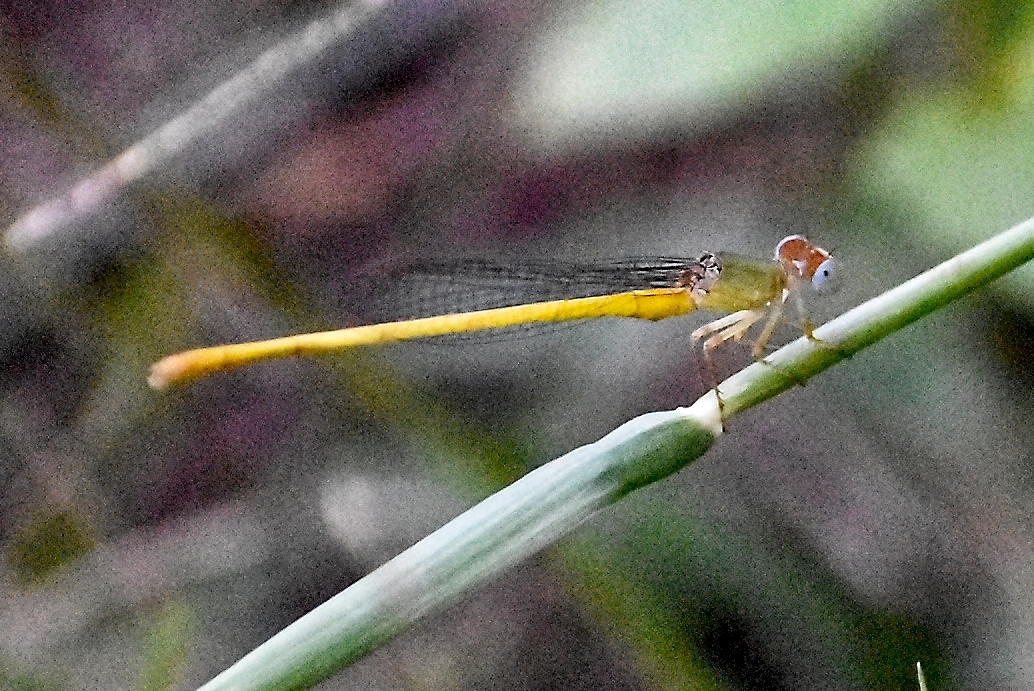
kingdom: Animalia
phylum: Arthropoda
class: Insecta
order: Odonata
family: Coenagrionidae
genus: Ceriagrion
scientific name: Ceriagrion coromandelianum
